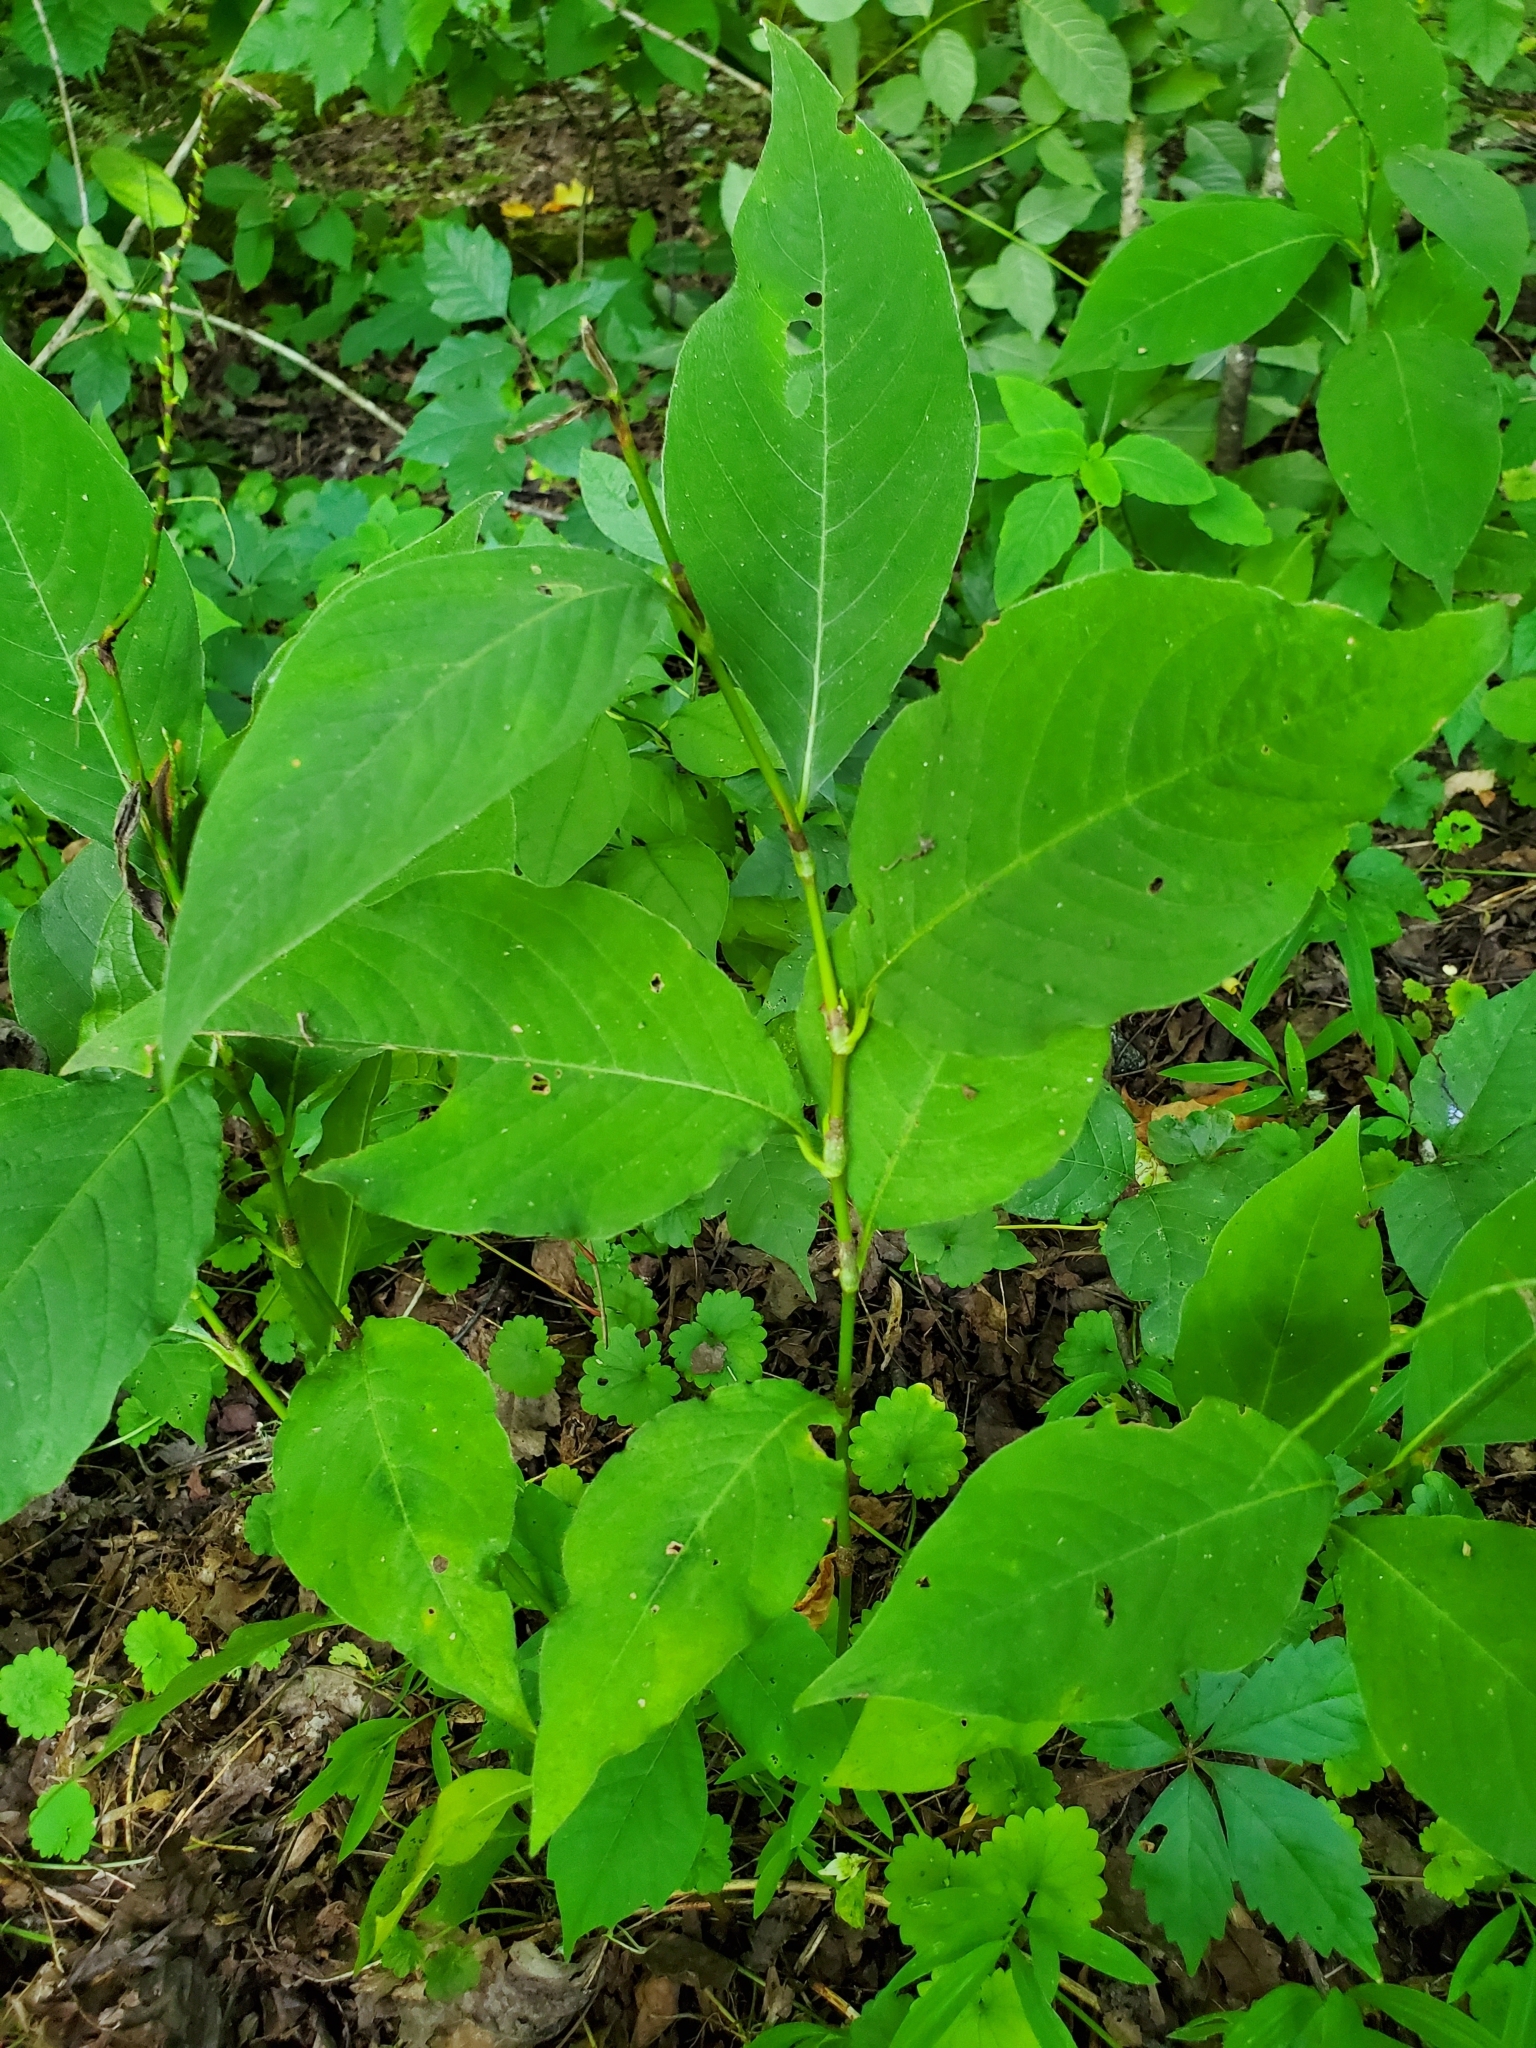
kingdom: Plantae
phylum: Tracheophyta
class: Magnoliopsida
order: Caryophyllales
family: Polygonaceae
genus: Persicaria
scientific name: Persicaria virginiana
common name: Jumpseed
